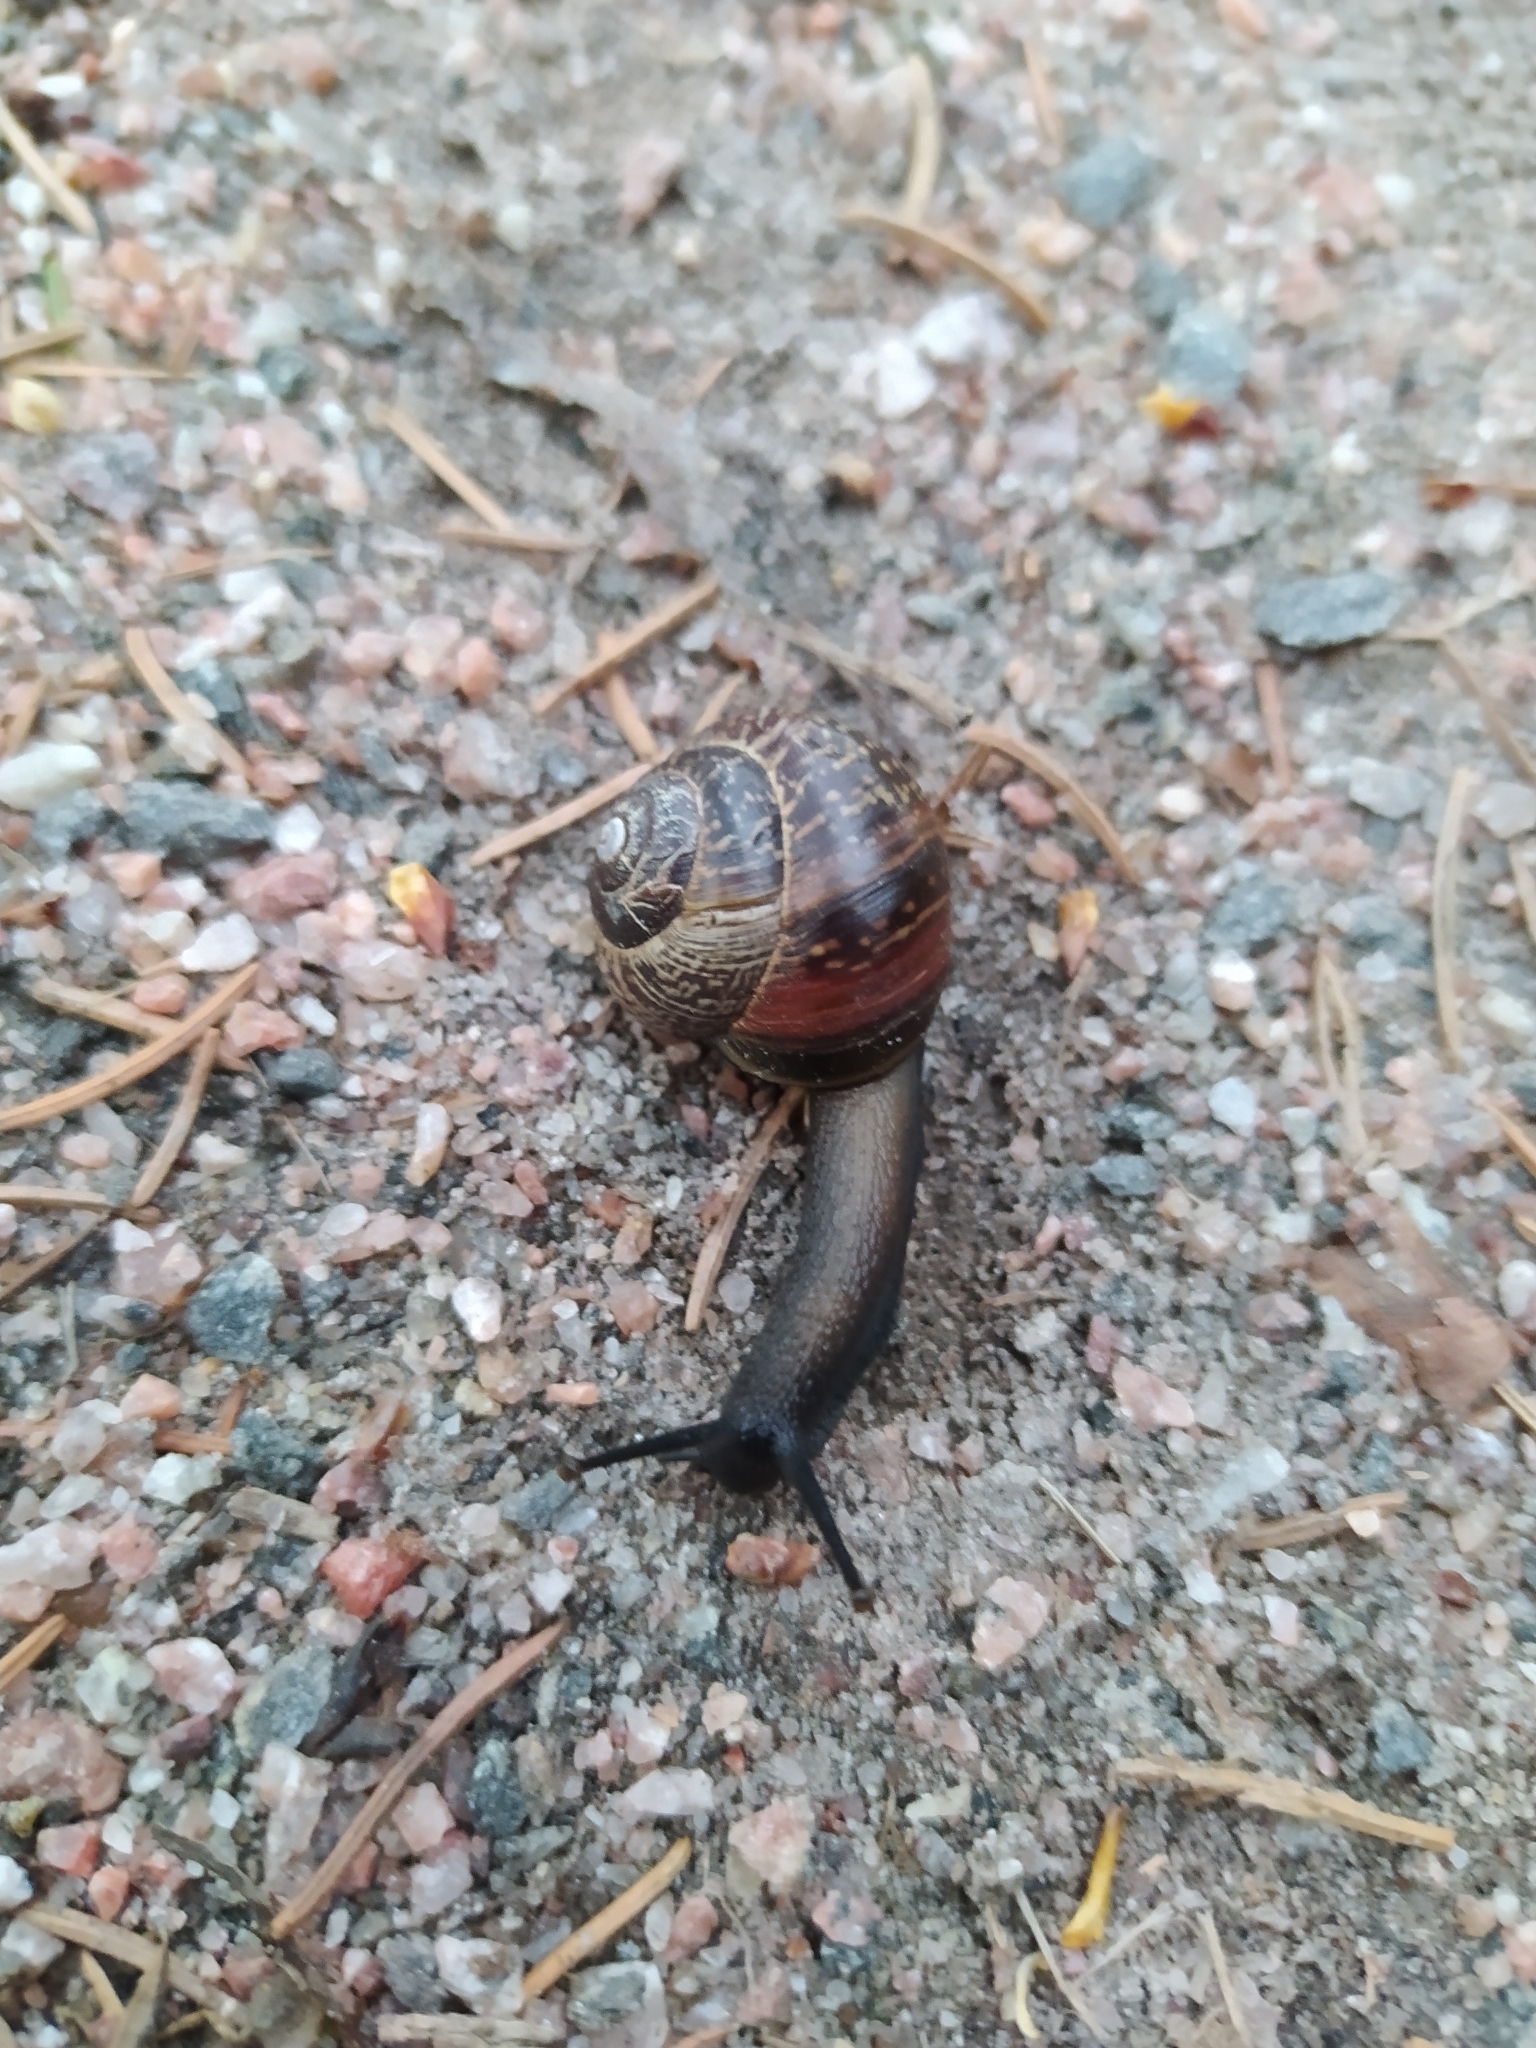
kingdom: Animalia
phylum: Mollusca
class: Gastropoda
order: Stylommatophora
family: Helicidae
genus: Arianta
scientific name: Arianta arbustorum
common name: Copse snail
